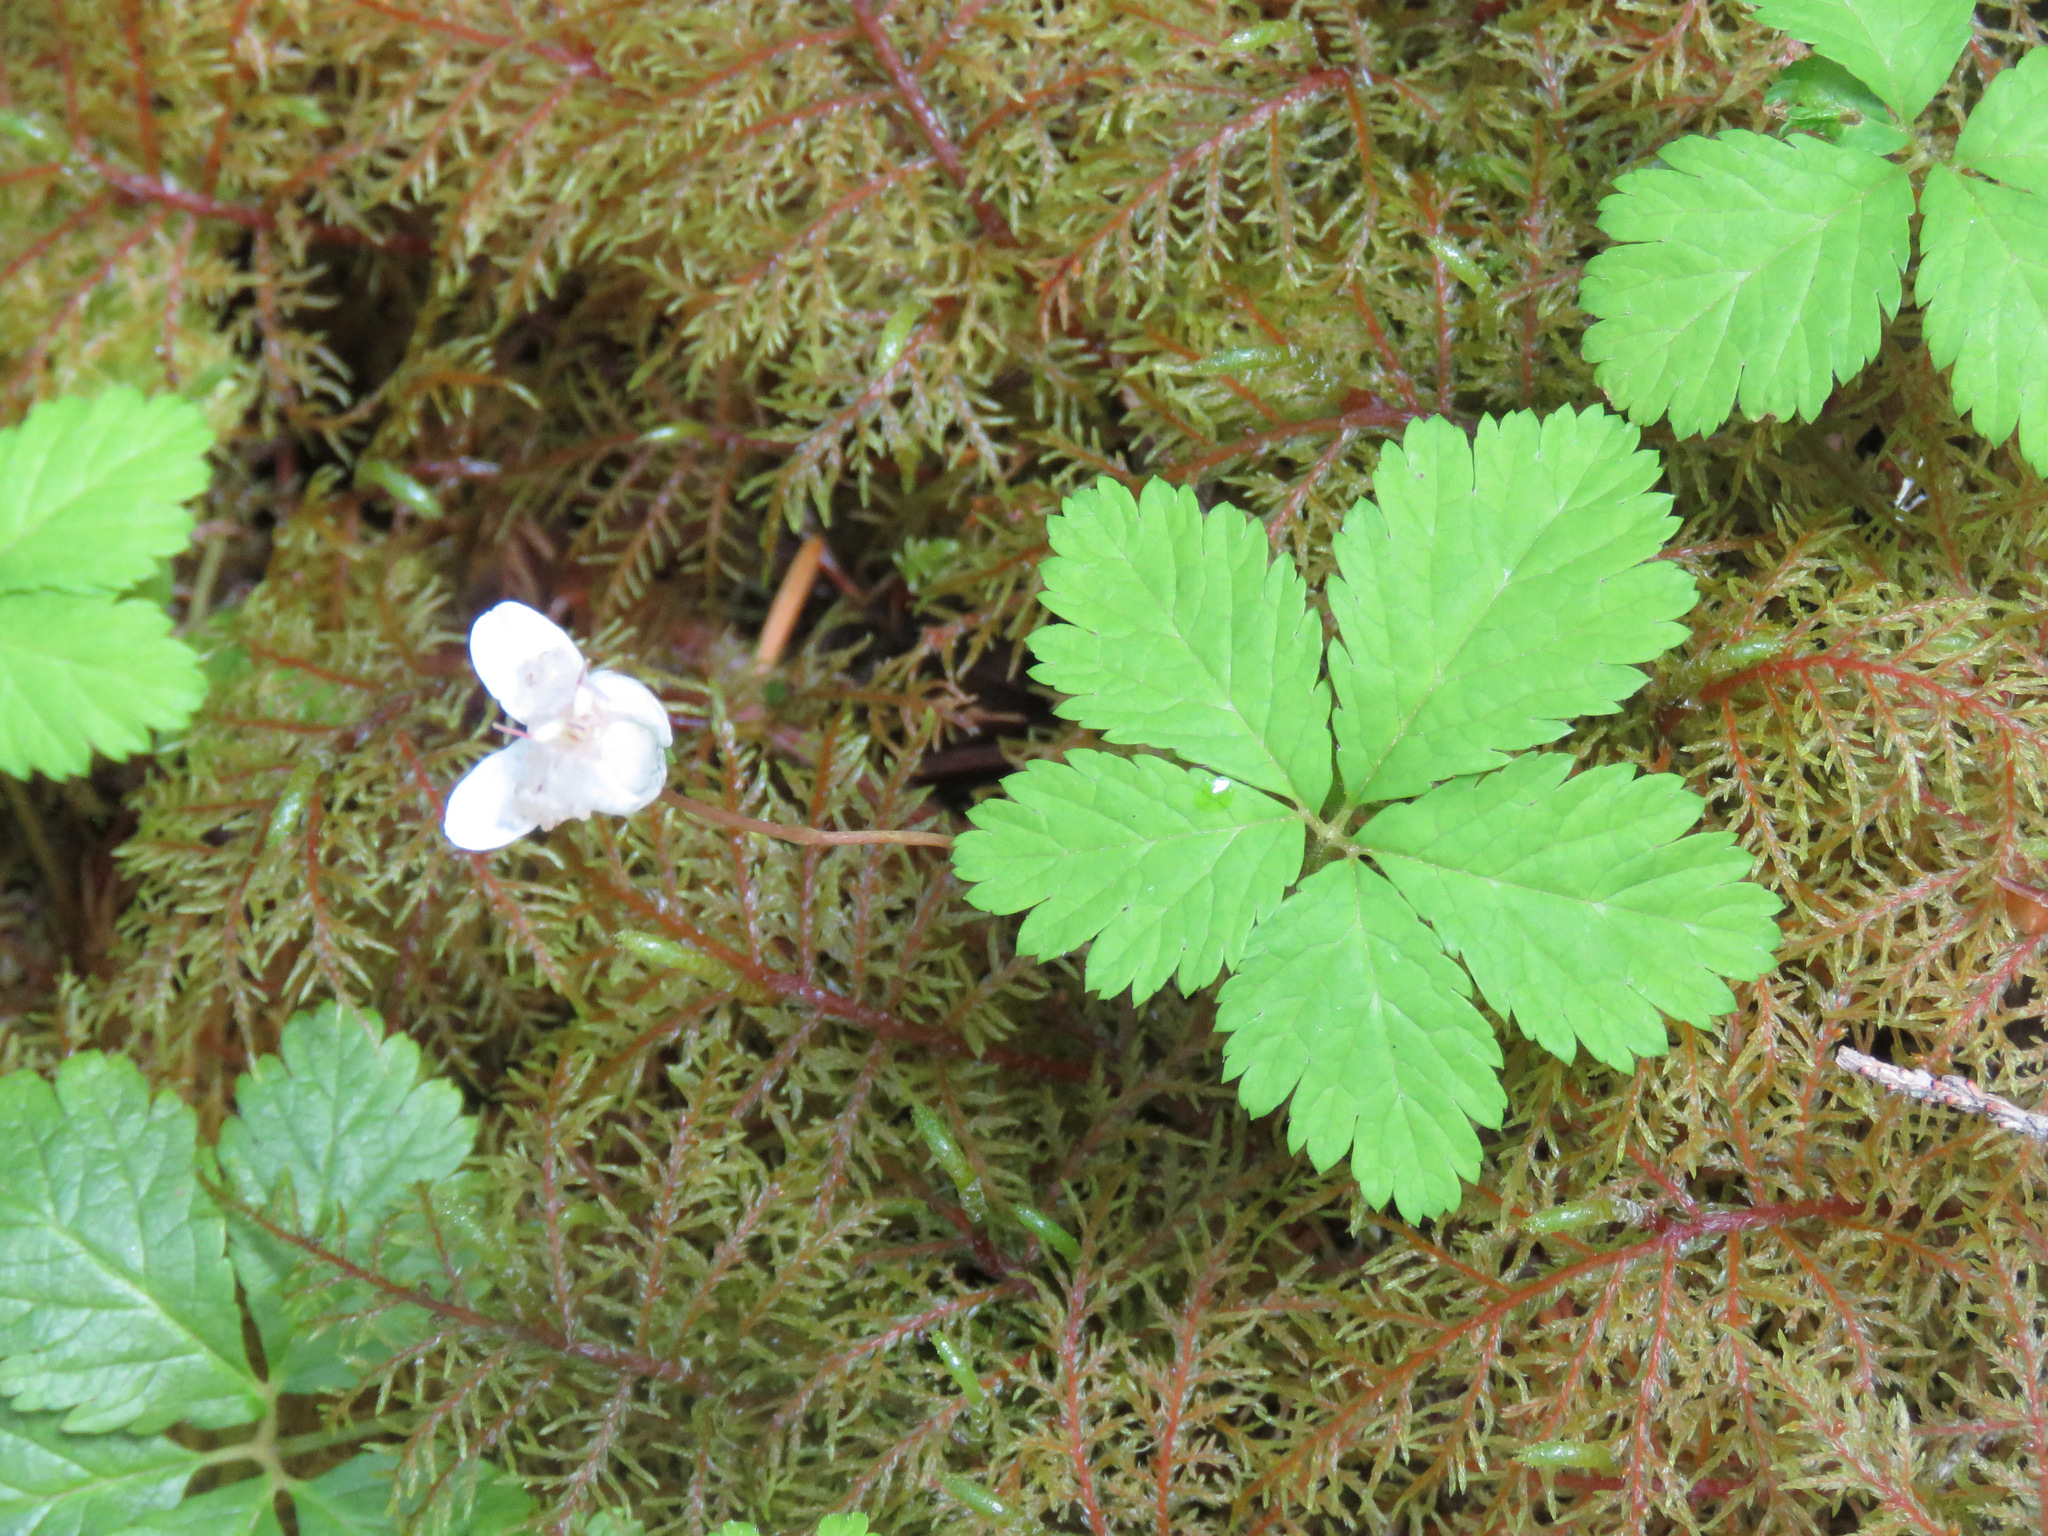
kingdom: Plantae
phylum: Tracheophyta
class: Magnoliopsida
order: Rosales
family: Rosaceae
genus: Rubus
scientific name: Rubus pedatus
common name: Creeping raspberry
